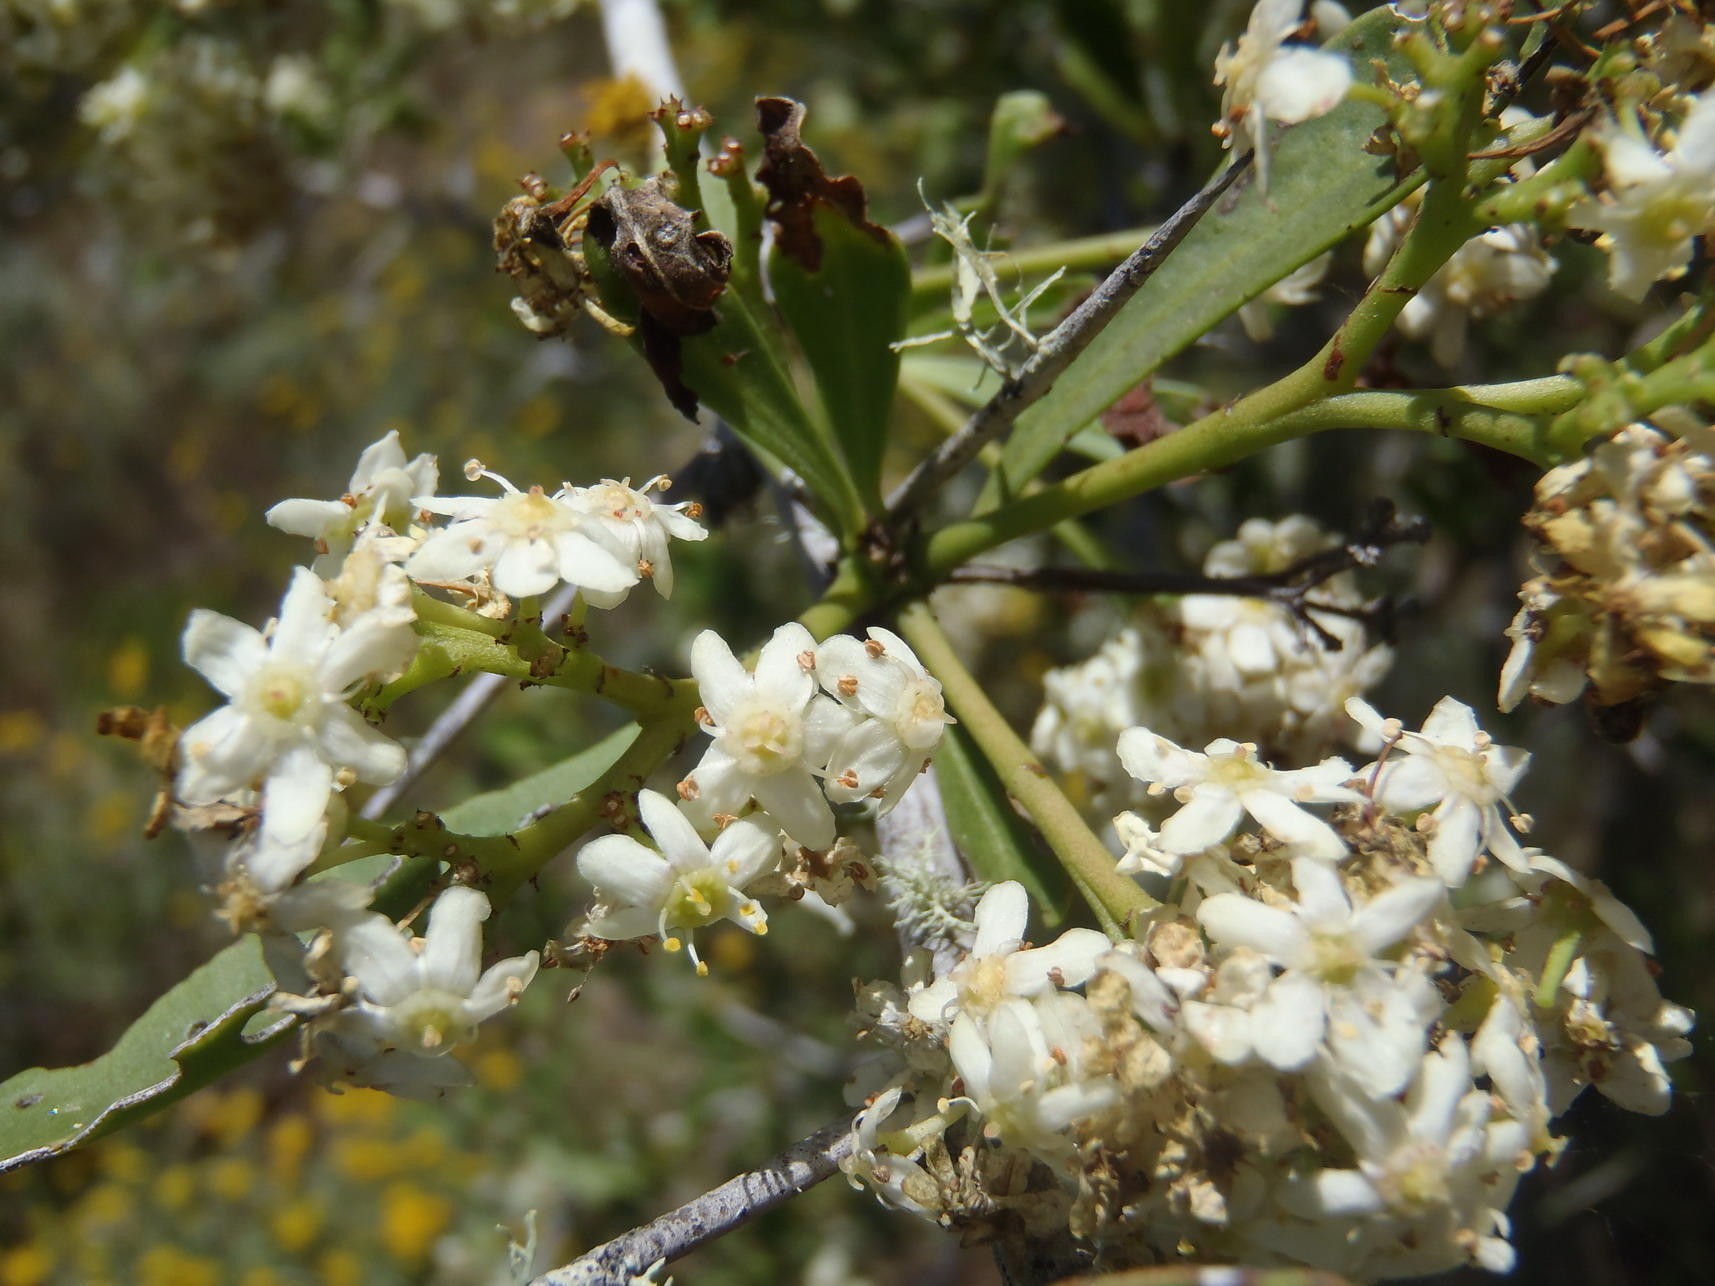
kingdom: Plantae
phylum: Tracheophyta
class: Magnoliopsida
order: Celastrales
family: Celastraceae
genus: Gymnosporia
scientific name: Gymnosporia buxifolia
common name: Common spike-thorn
